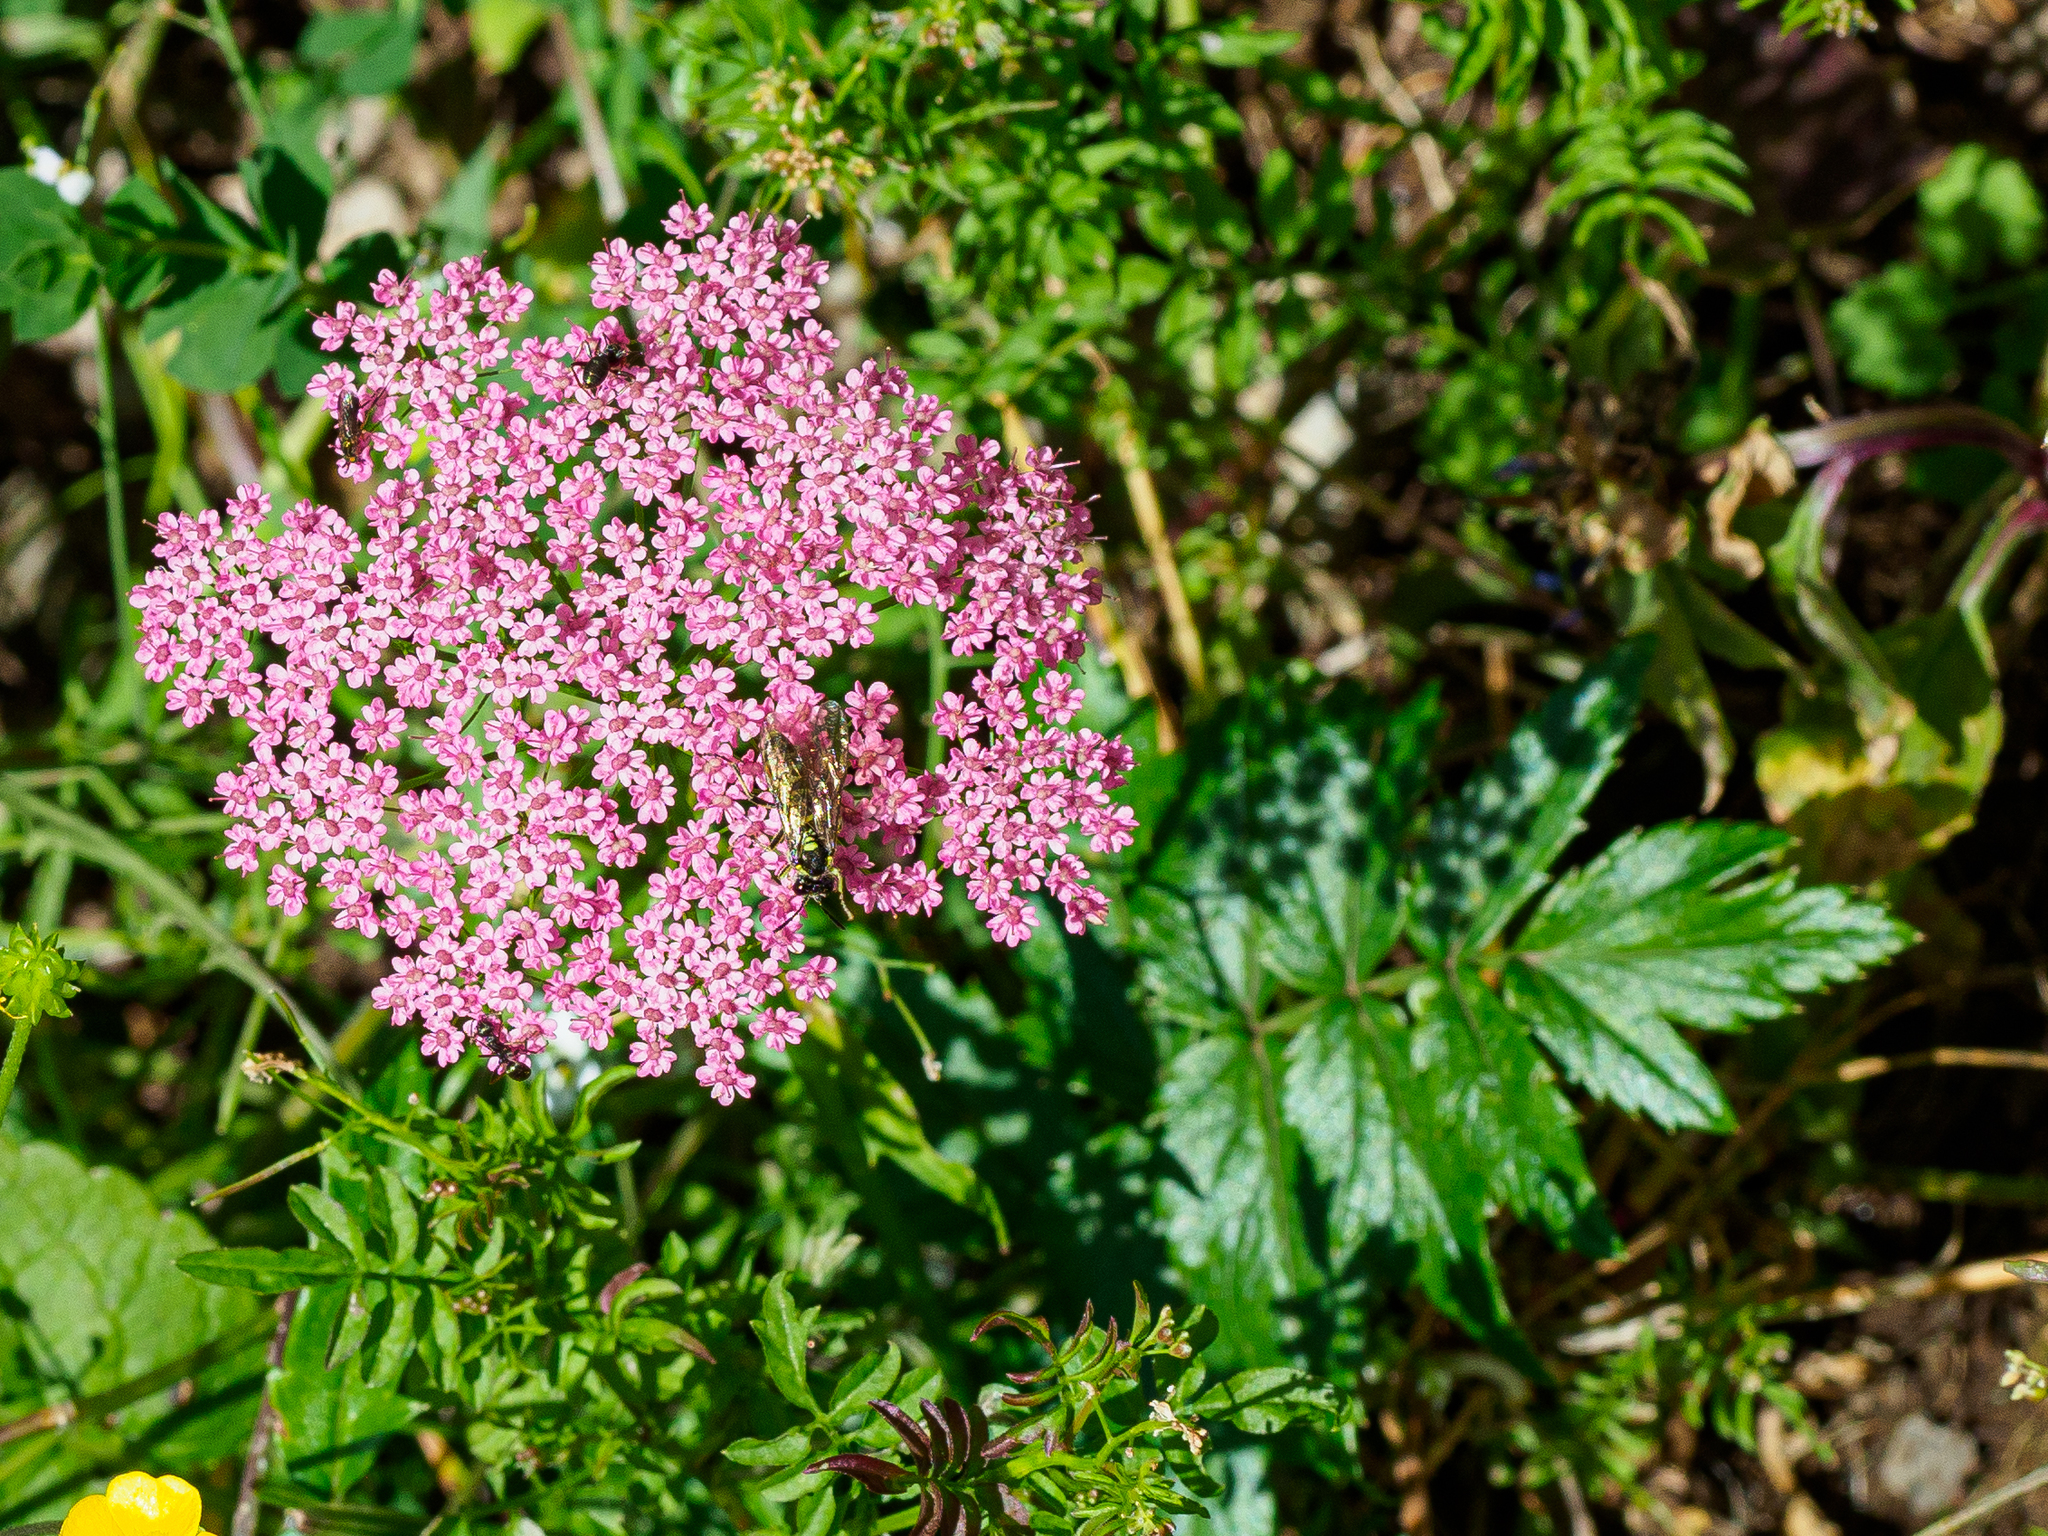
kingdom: Plantae
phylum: Tracheophyta
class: Magnoliopsida
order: Apiales
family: Apiaceae
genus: Pimpinella
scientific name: Pimpinella major
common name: Greater burnet-saxifrage
